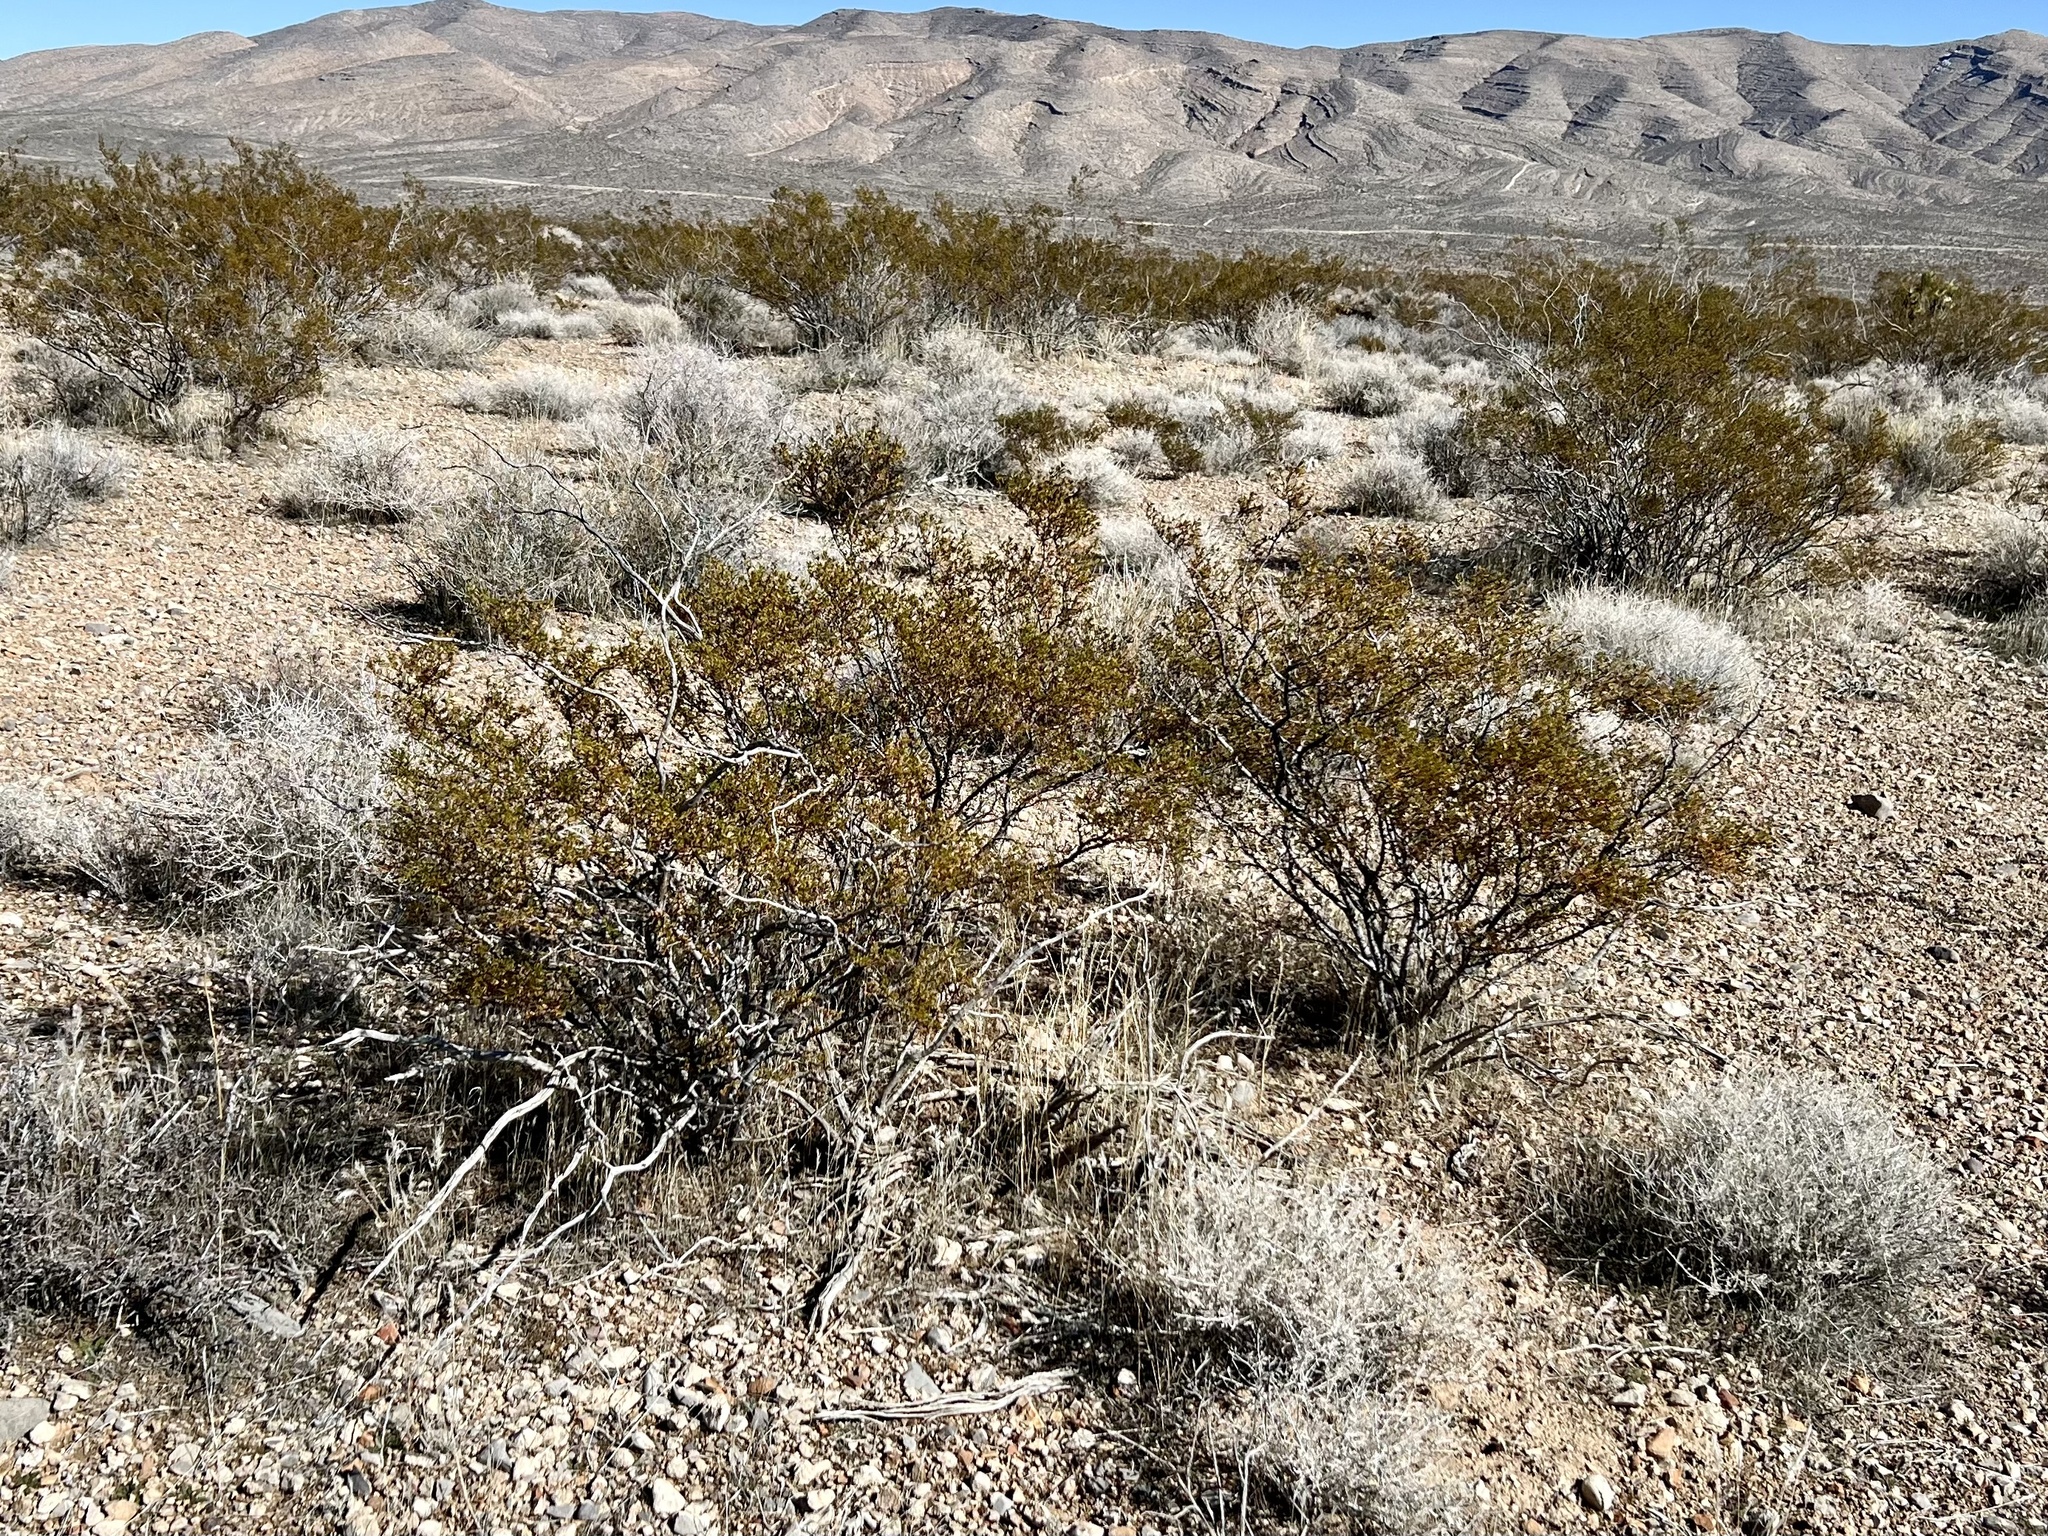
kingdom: Plantae
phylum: Tracheophyta
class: Magnoliopsida
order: Zygophyllales
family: Zygophyllaceae
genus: Larrea
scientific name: Larrea tridentata
